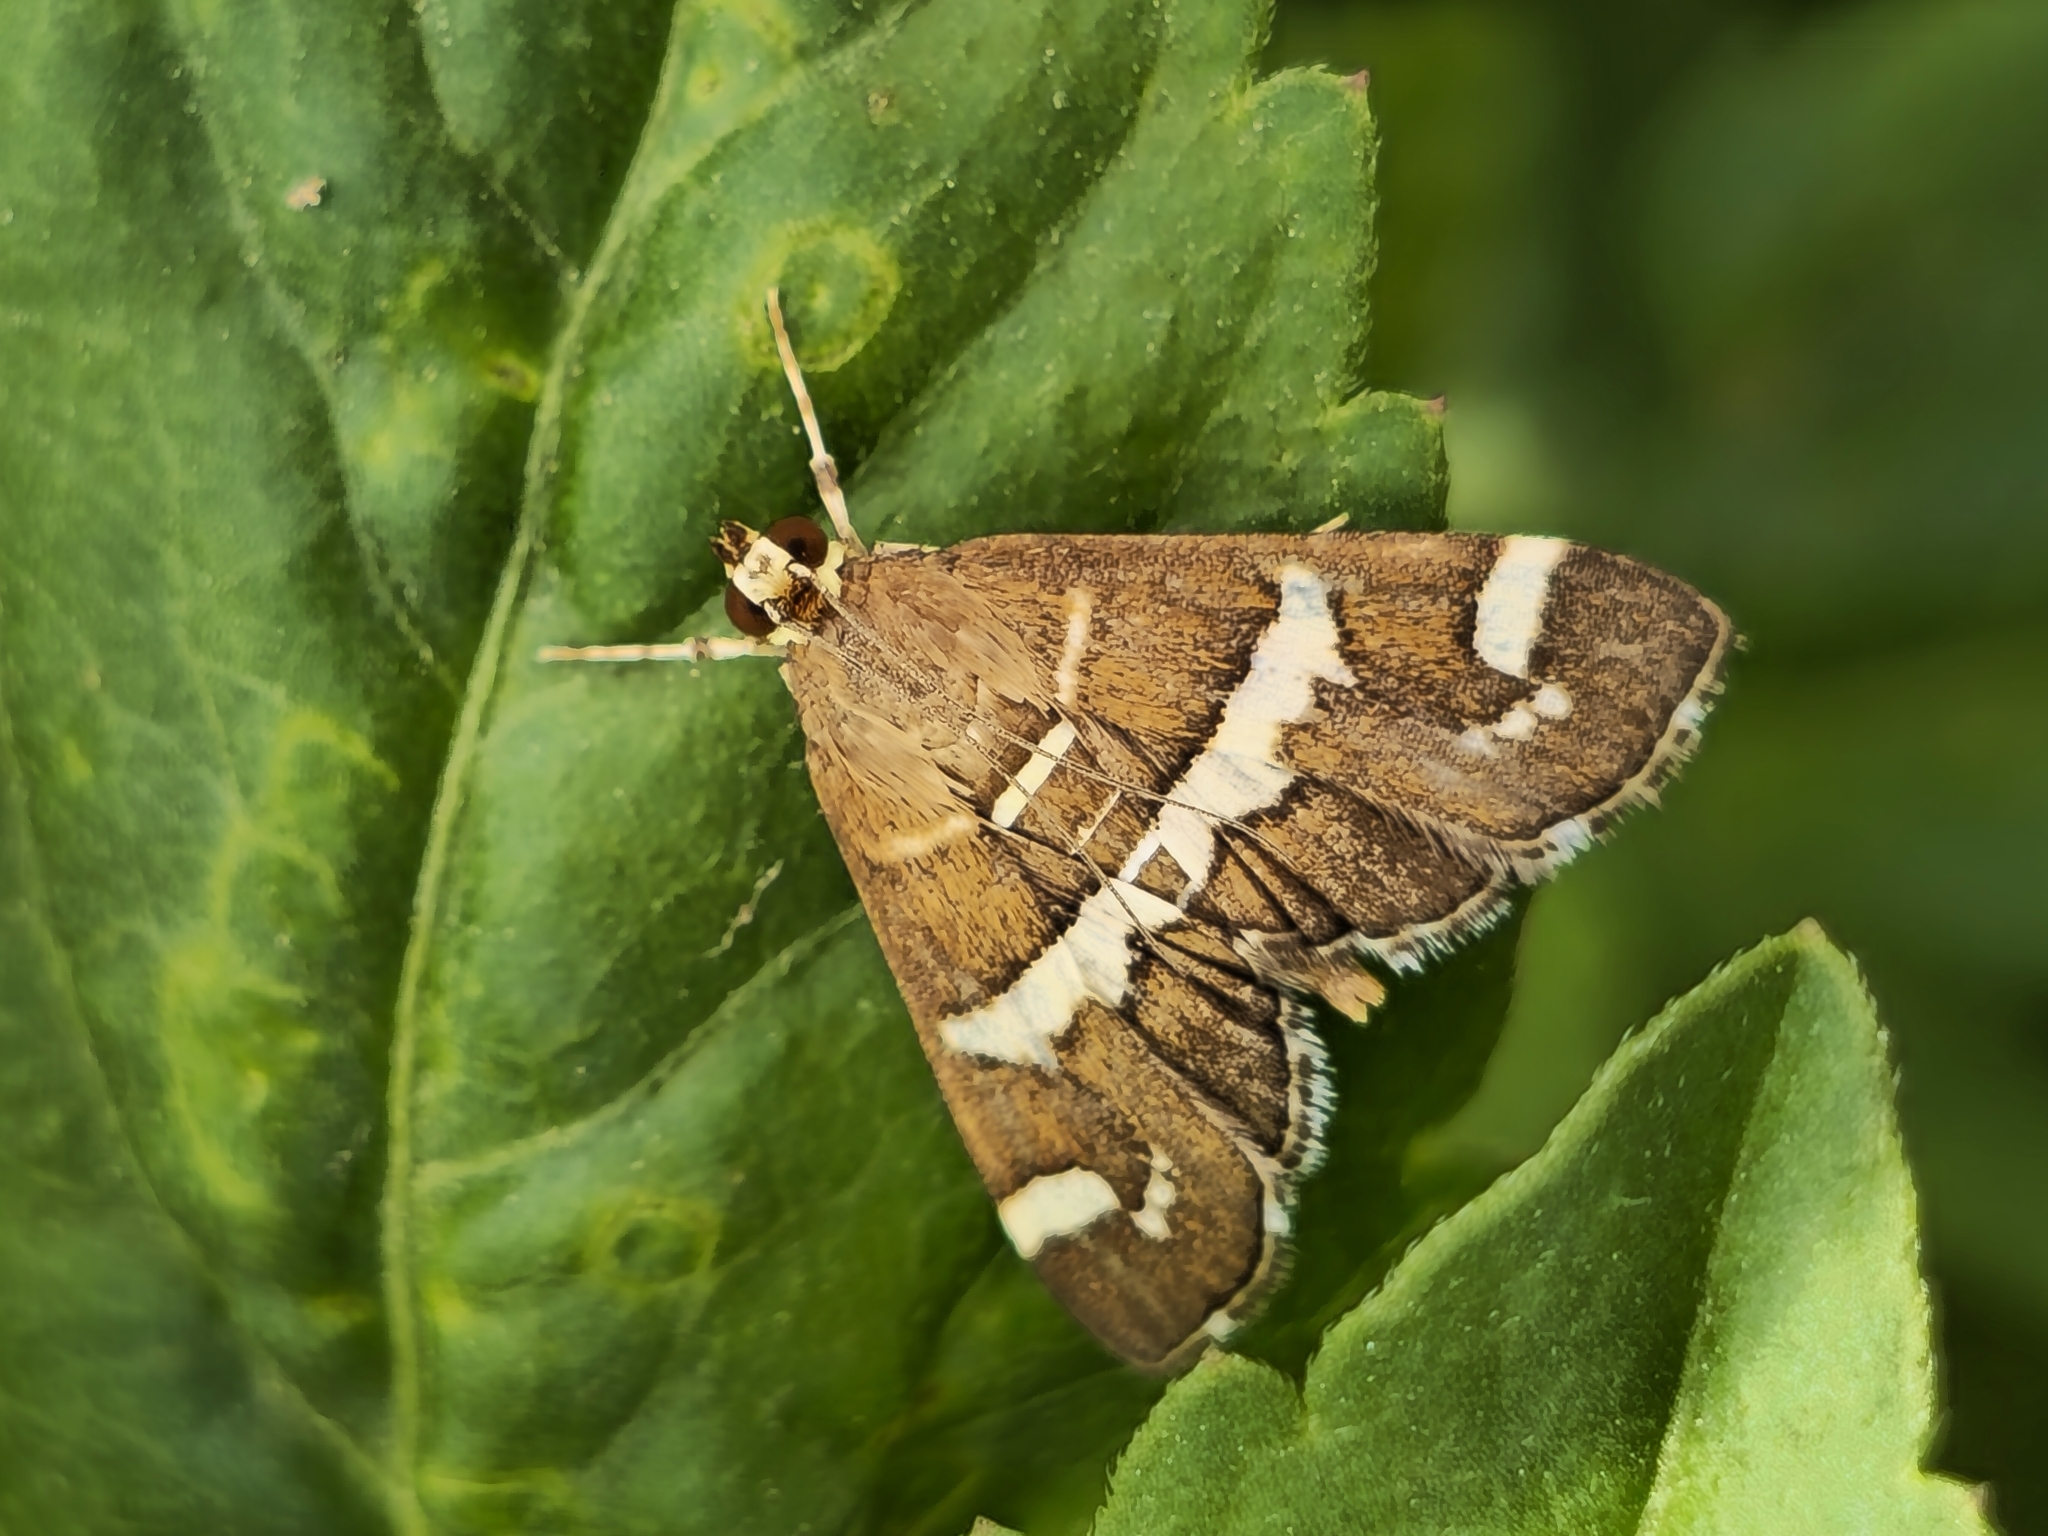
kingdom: Animalia
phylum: Arthropoda
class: Insecta
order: Lepidoptera
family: Crambidae
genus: Spoladea
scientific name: Spoladea recurvalis
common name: Beet webworm moth
